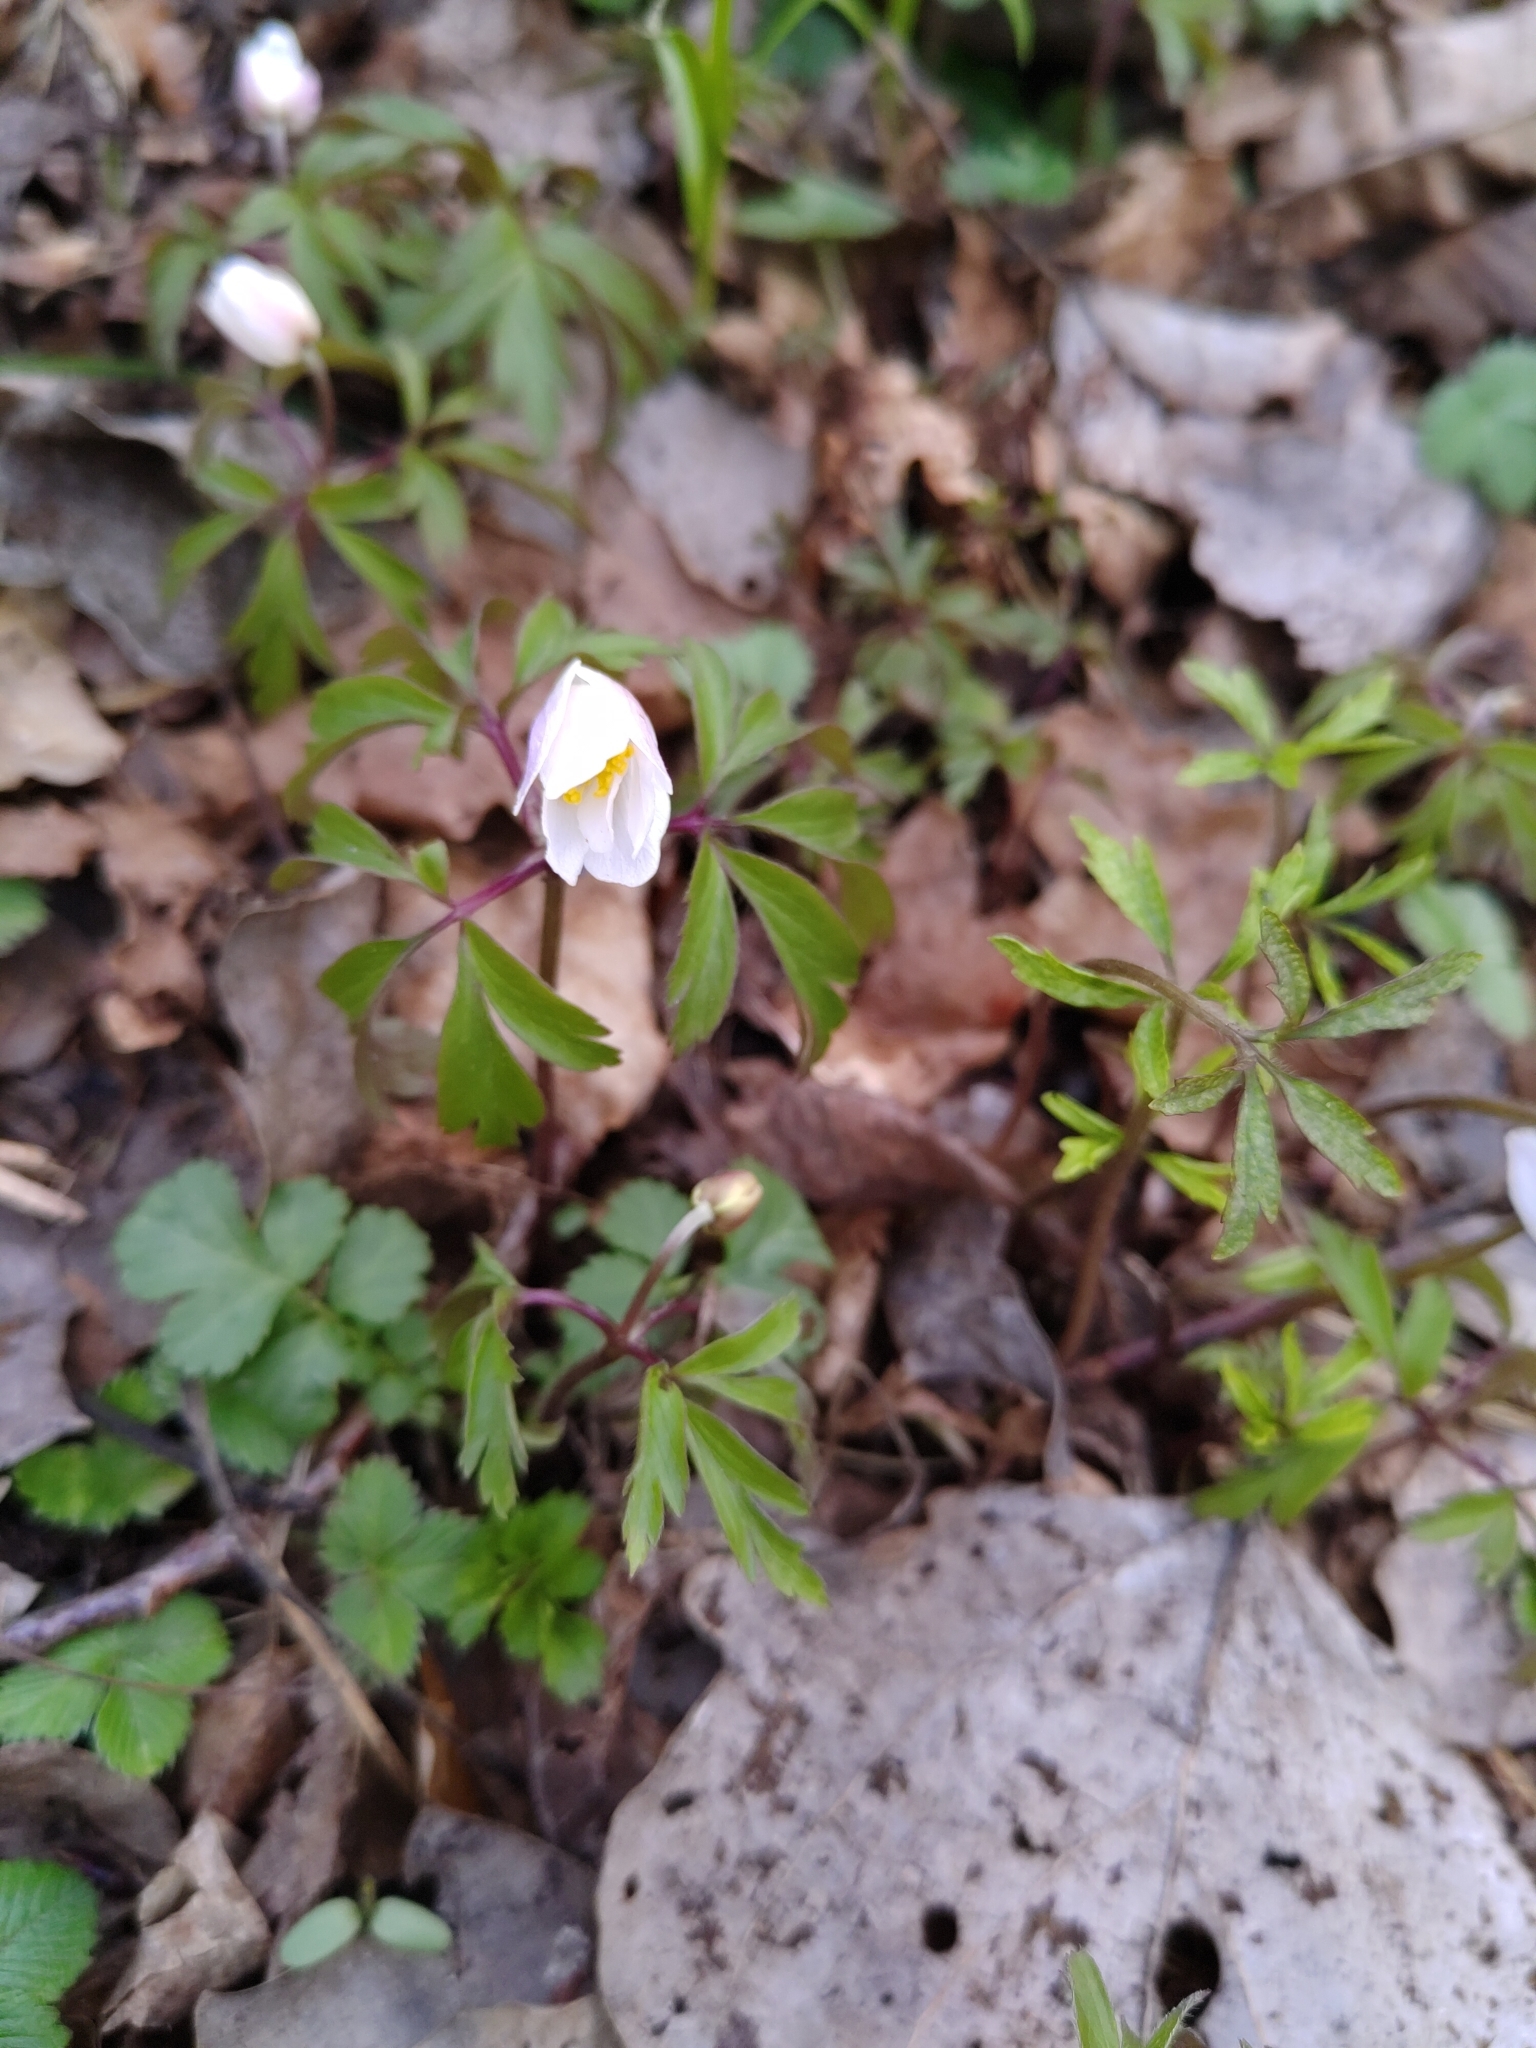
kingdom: Plantae
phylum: Tracheophyta
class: Magnoliopsida
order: Ranunculales
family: Ranunculaceae
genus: Anemone
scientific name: Anemone nemorosa
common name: Wood anemone
